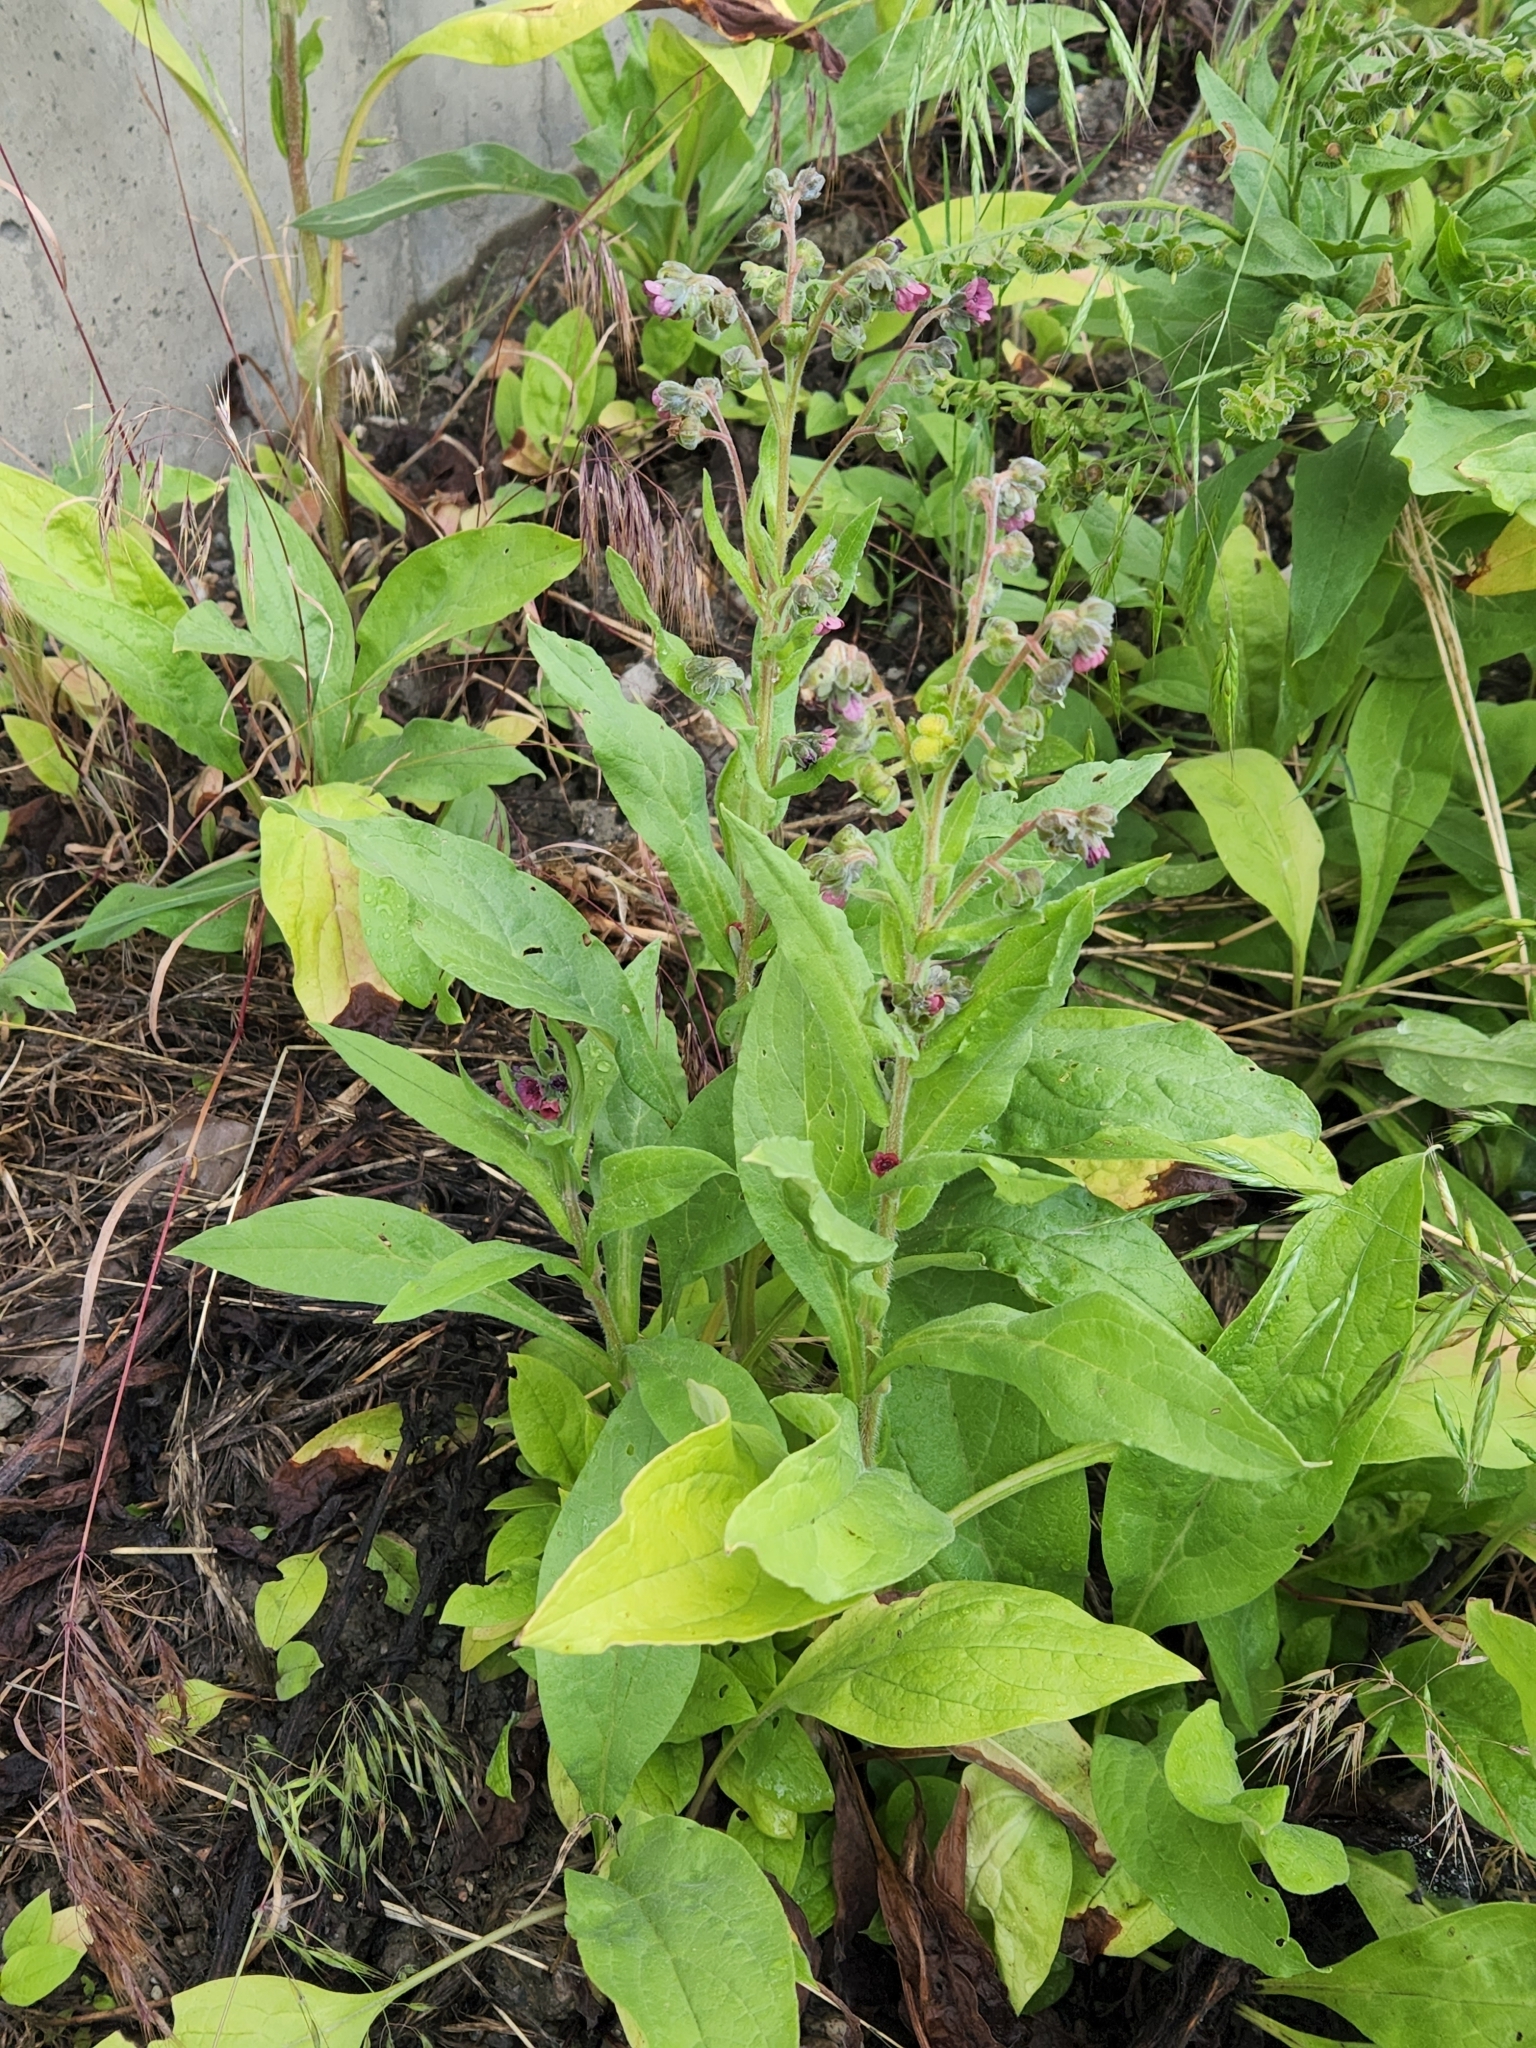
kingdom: Plantae
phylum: Tracheophyta
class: Magnoliopsida
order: Boraginales
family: Boraginaceae
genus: Cynoglossum
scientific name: Cynoglossum officinale
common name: Hound's-tongue
